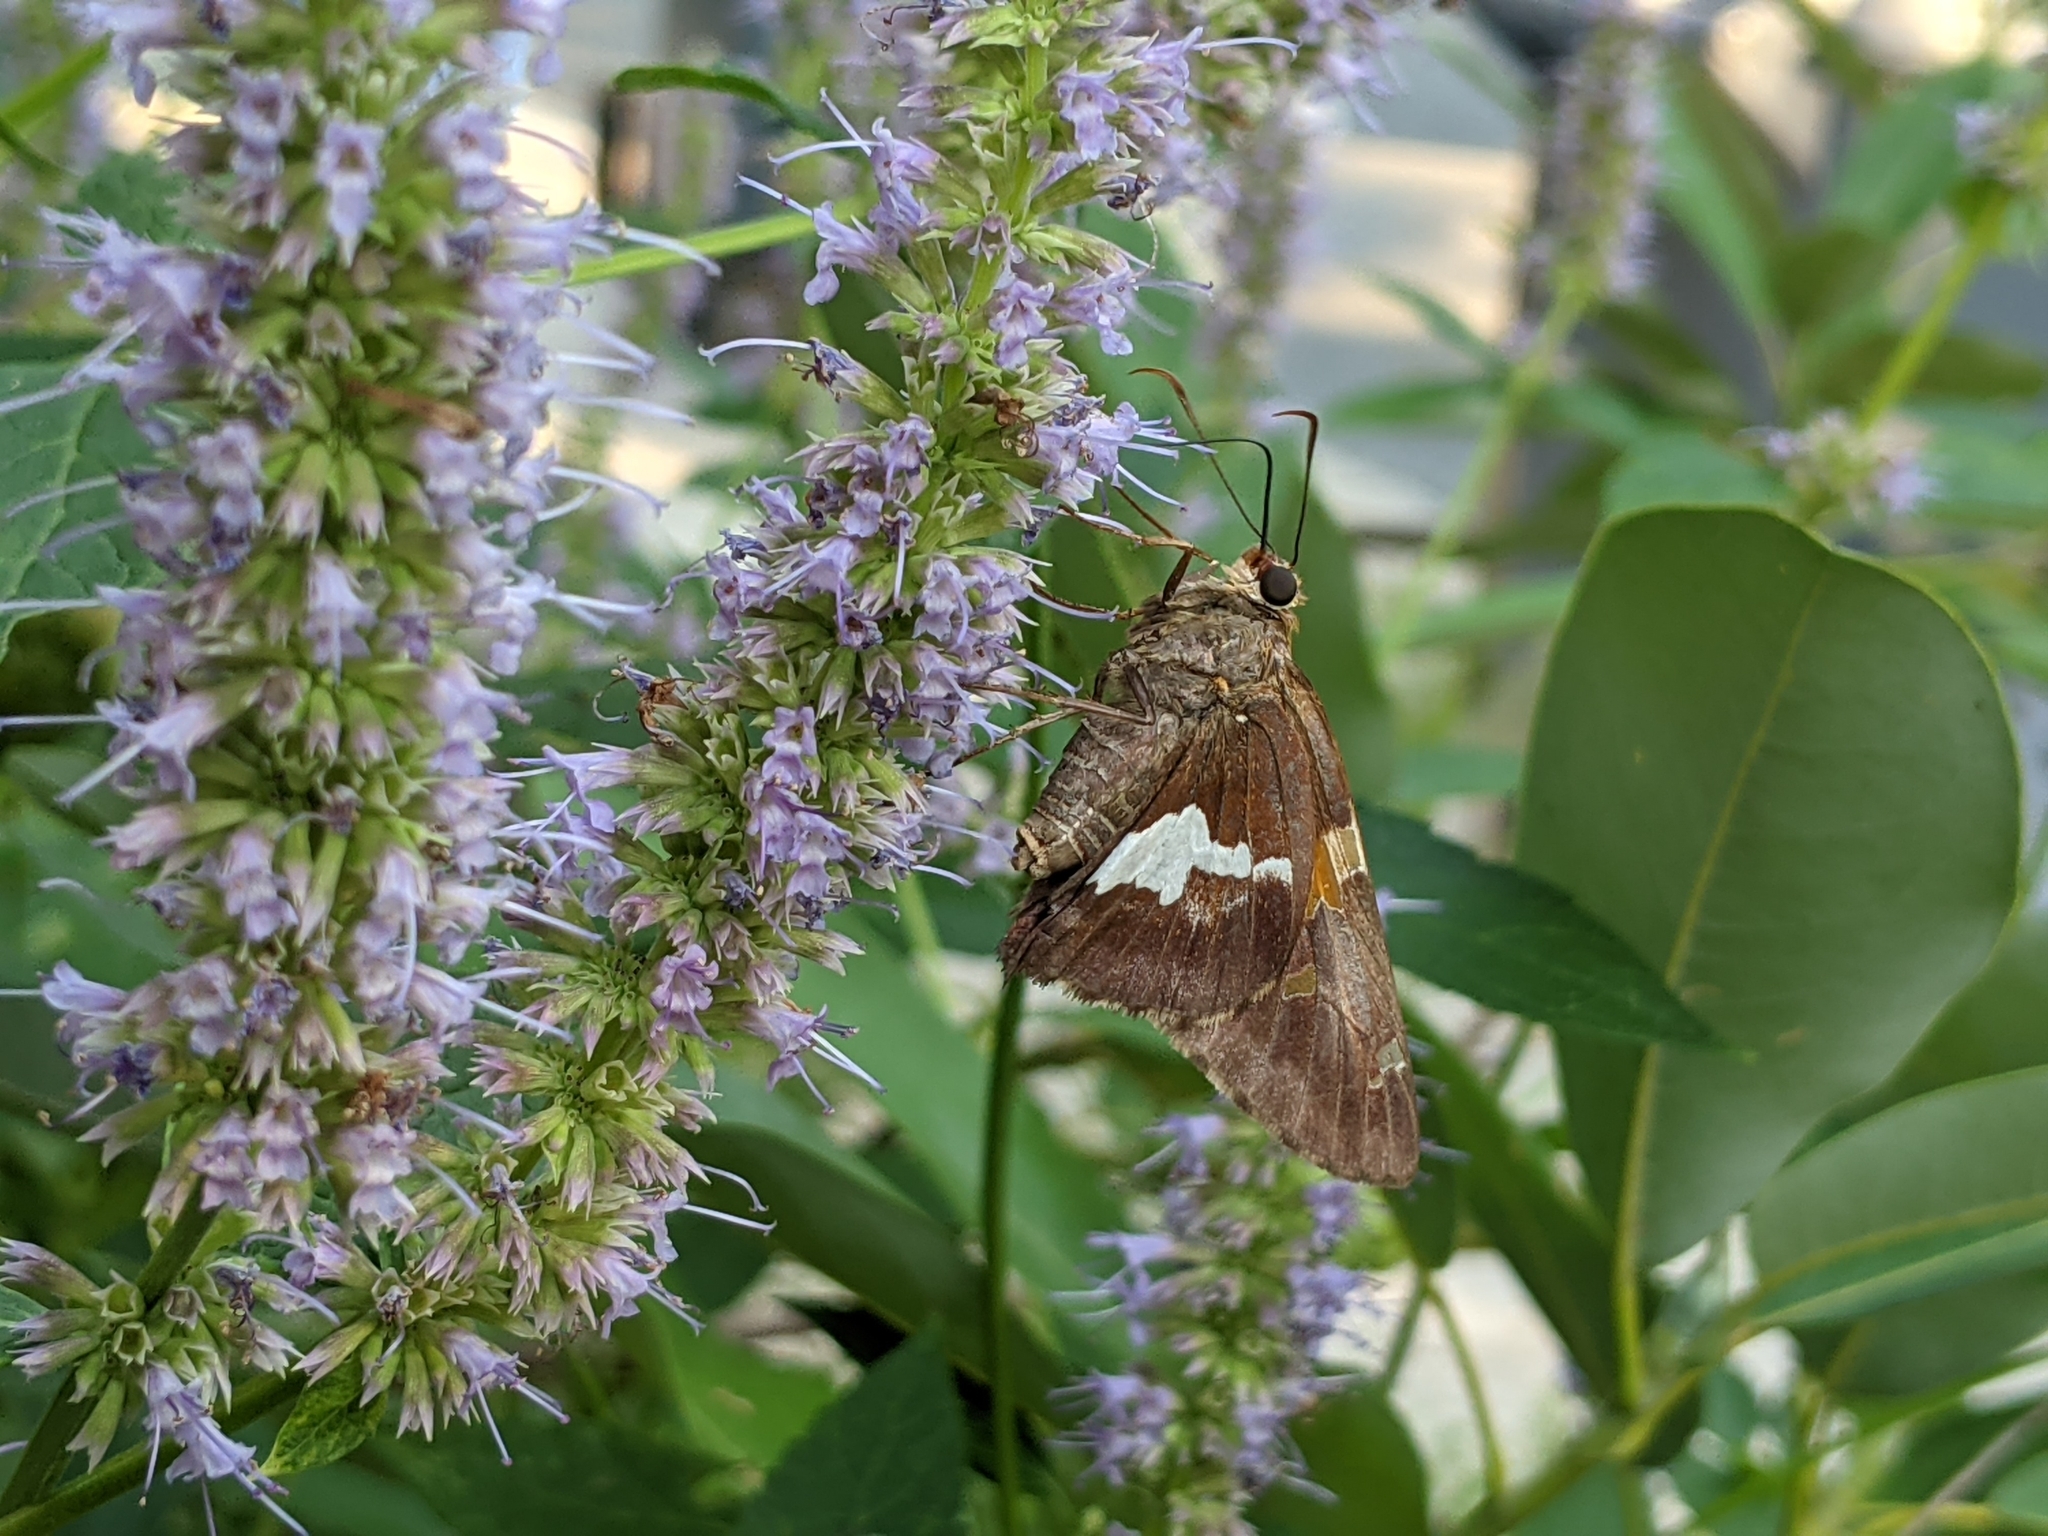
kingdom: Animalia
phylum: Arthropoda
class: Insecta
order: Lepidoptera
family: Hesperiidae
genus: Epargyreus
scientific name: Epargyreus clarus
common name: Silver-spotted skipper
